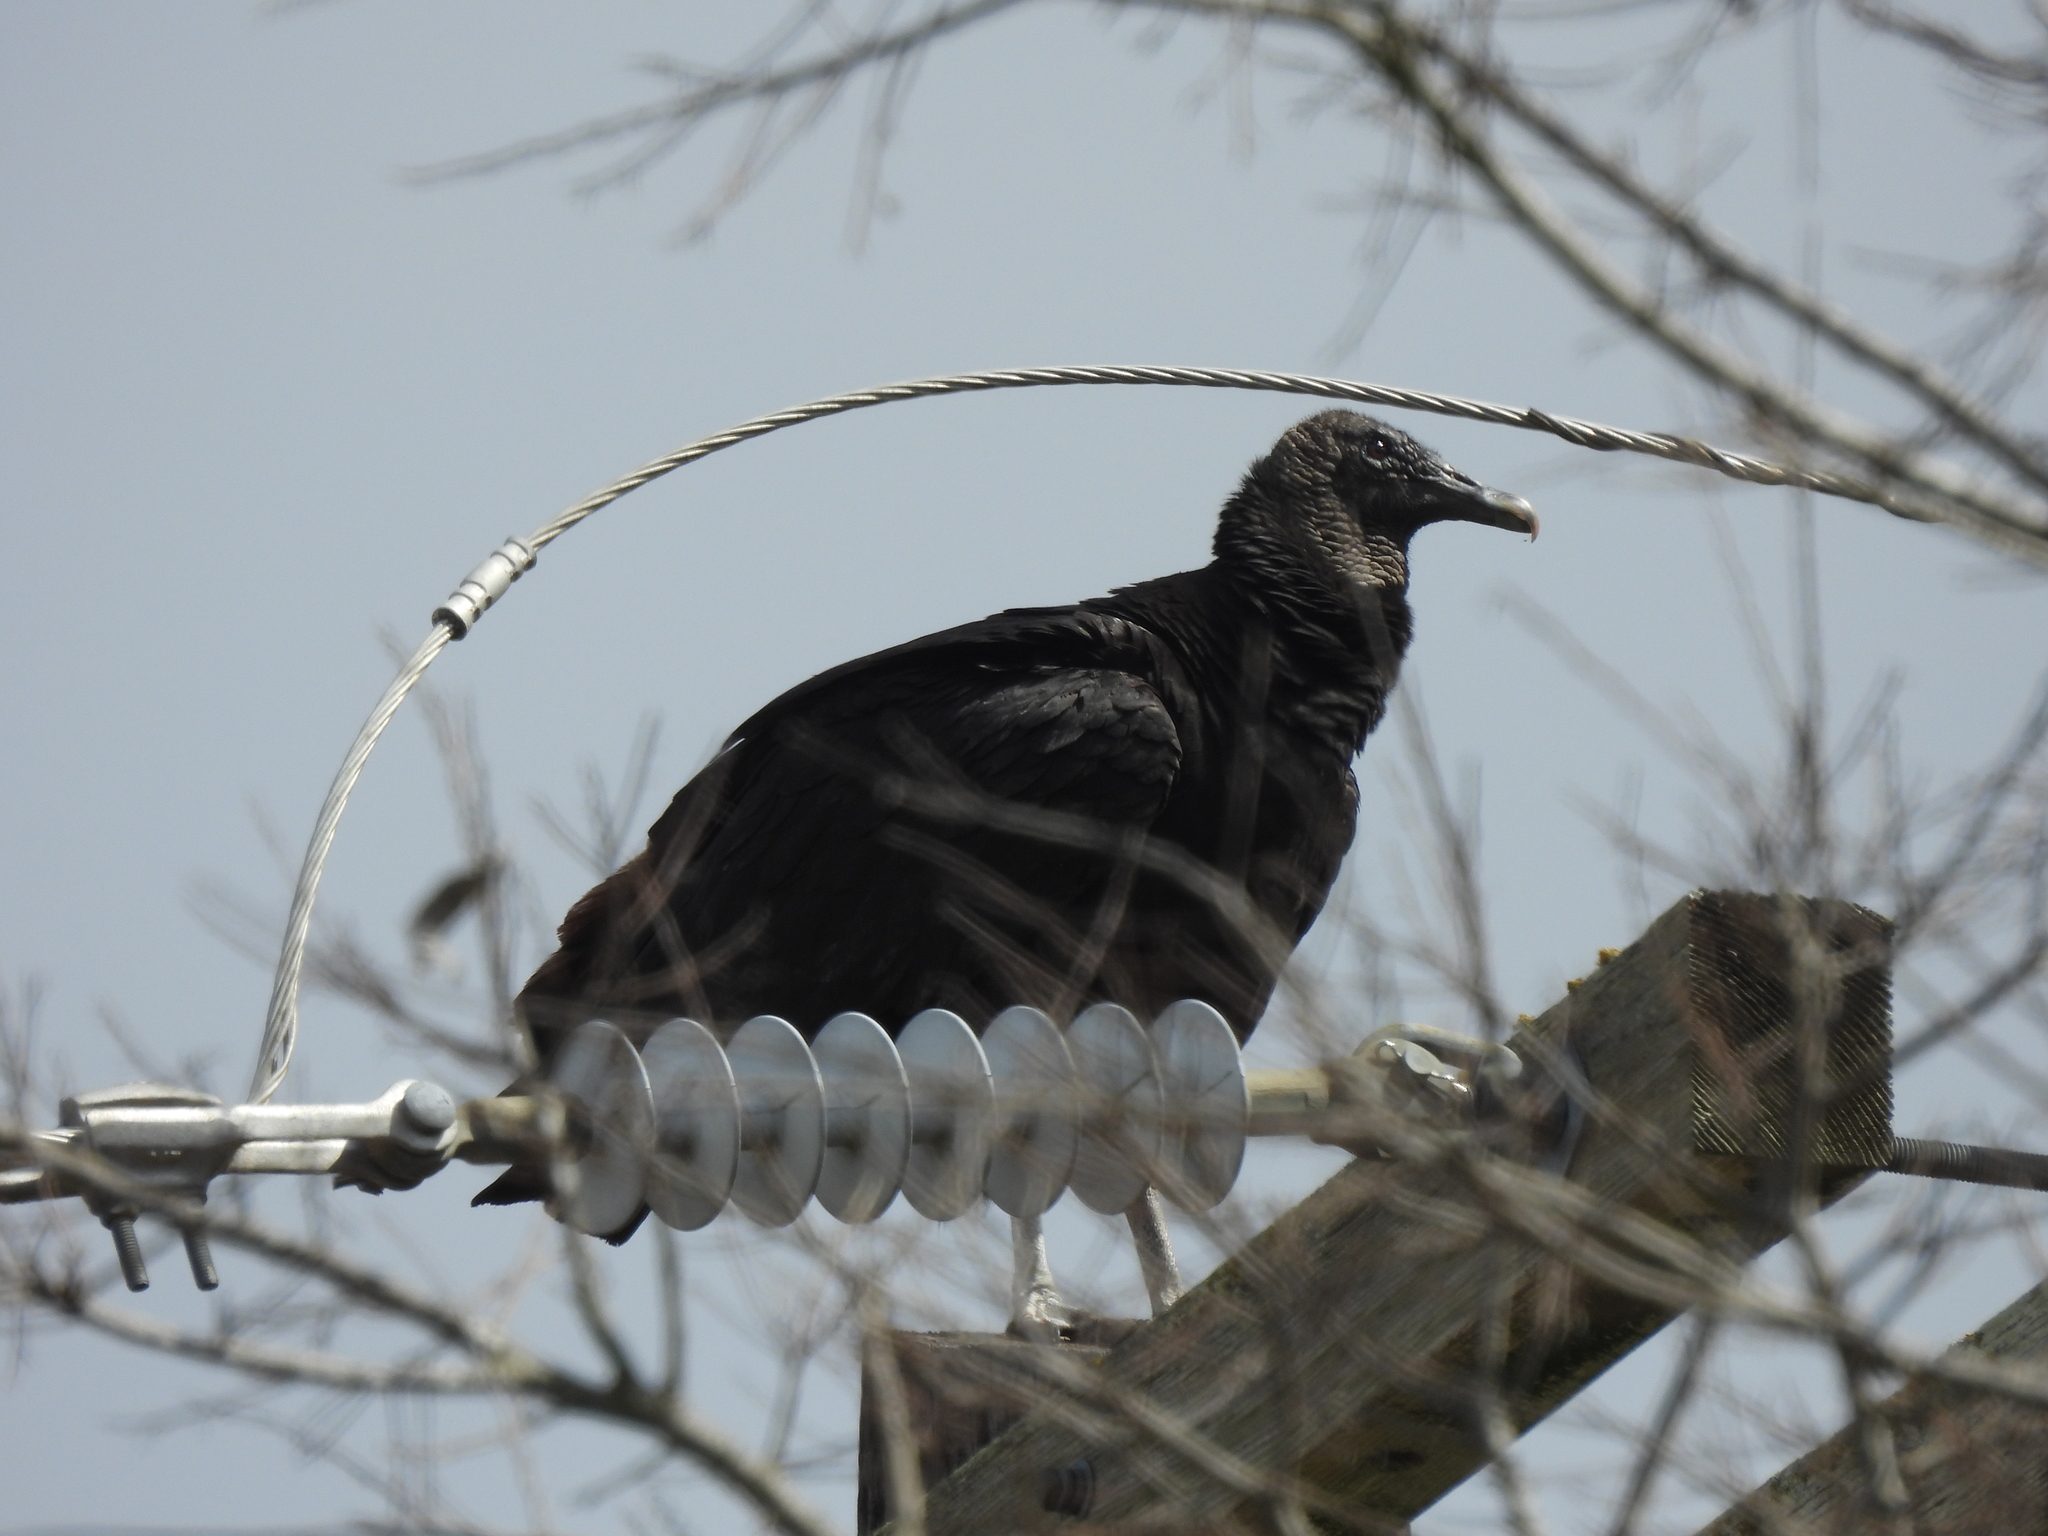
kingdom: Animalia
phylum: Chordata
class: Aves
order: Accipitriformes
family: Cathartidae
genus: Coragyps
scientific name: Coragyps atratus
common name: Black vulture
